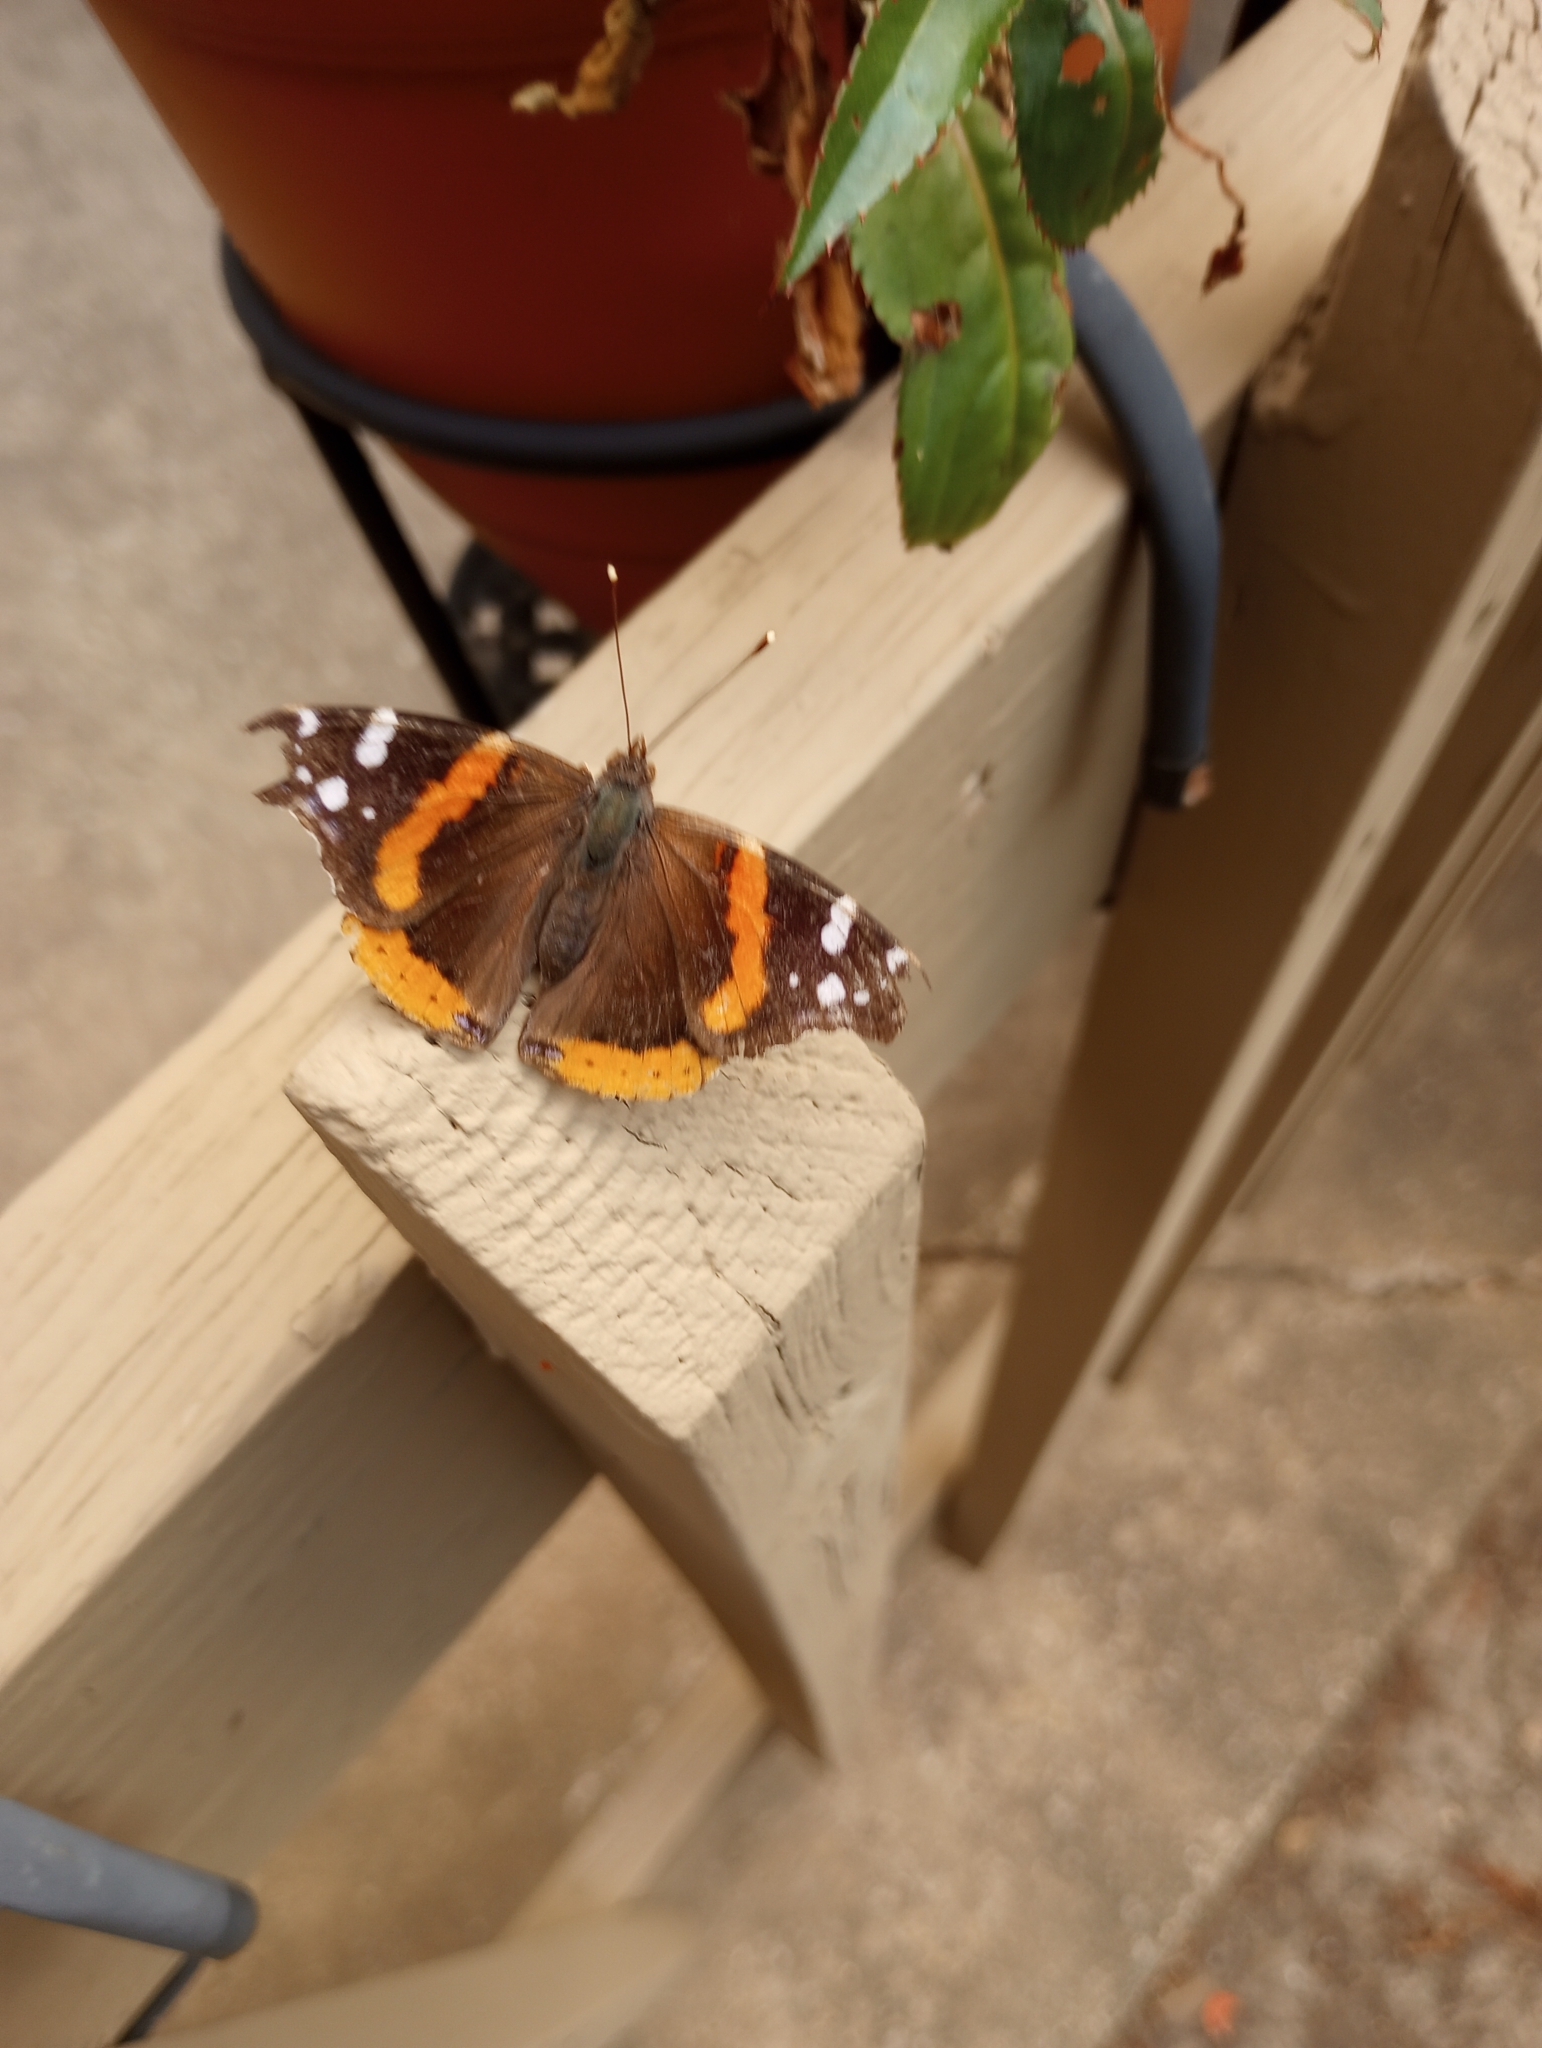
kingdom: Animalia
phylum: Arthropoda
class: Insecta
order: Lepidoptera
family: Nymphalidae
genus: Vanessa
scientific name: Vanessa atalanta
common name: Red admiral
